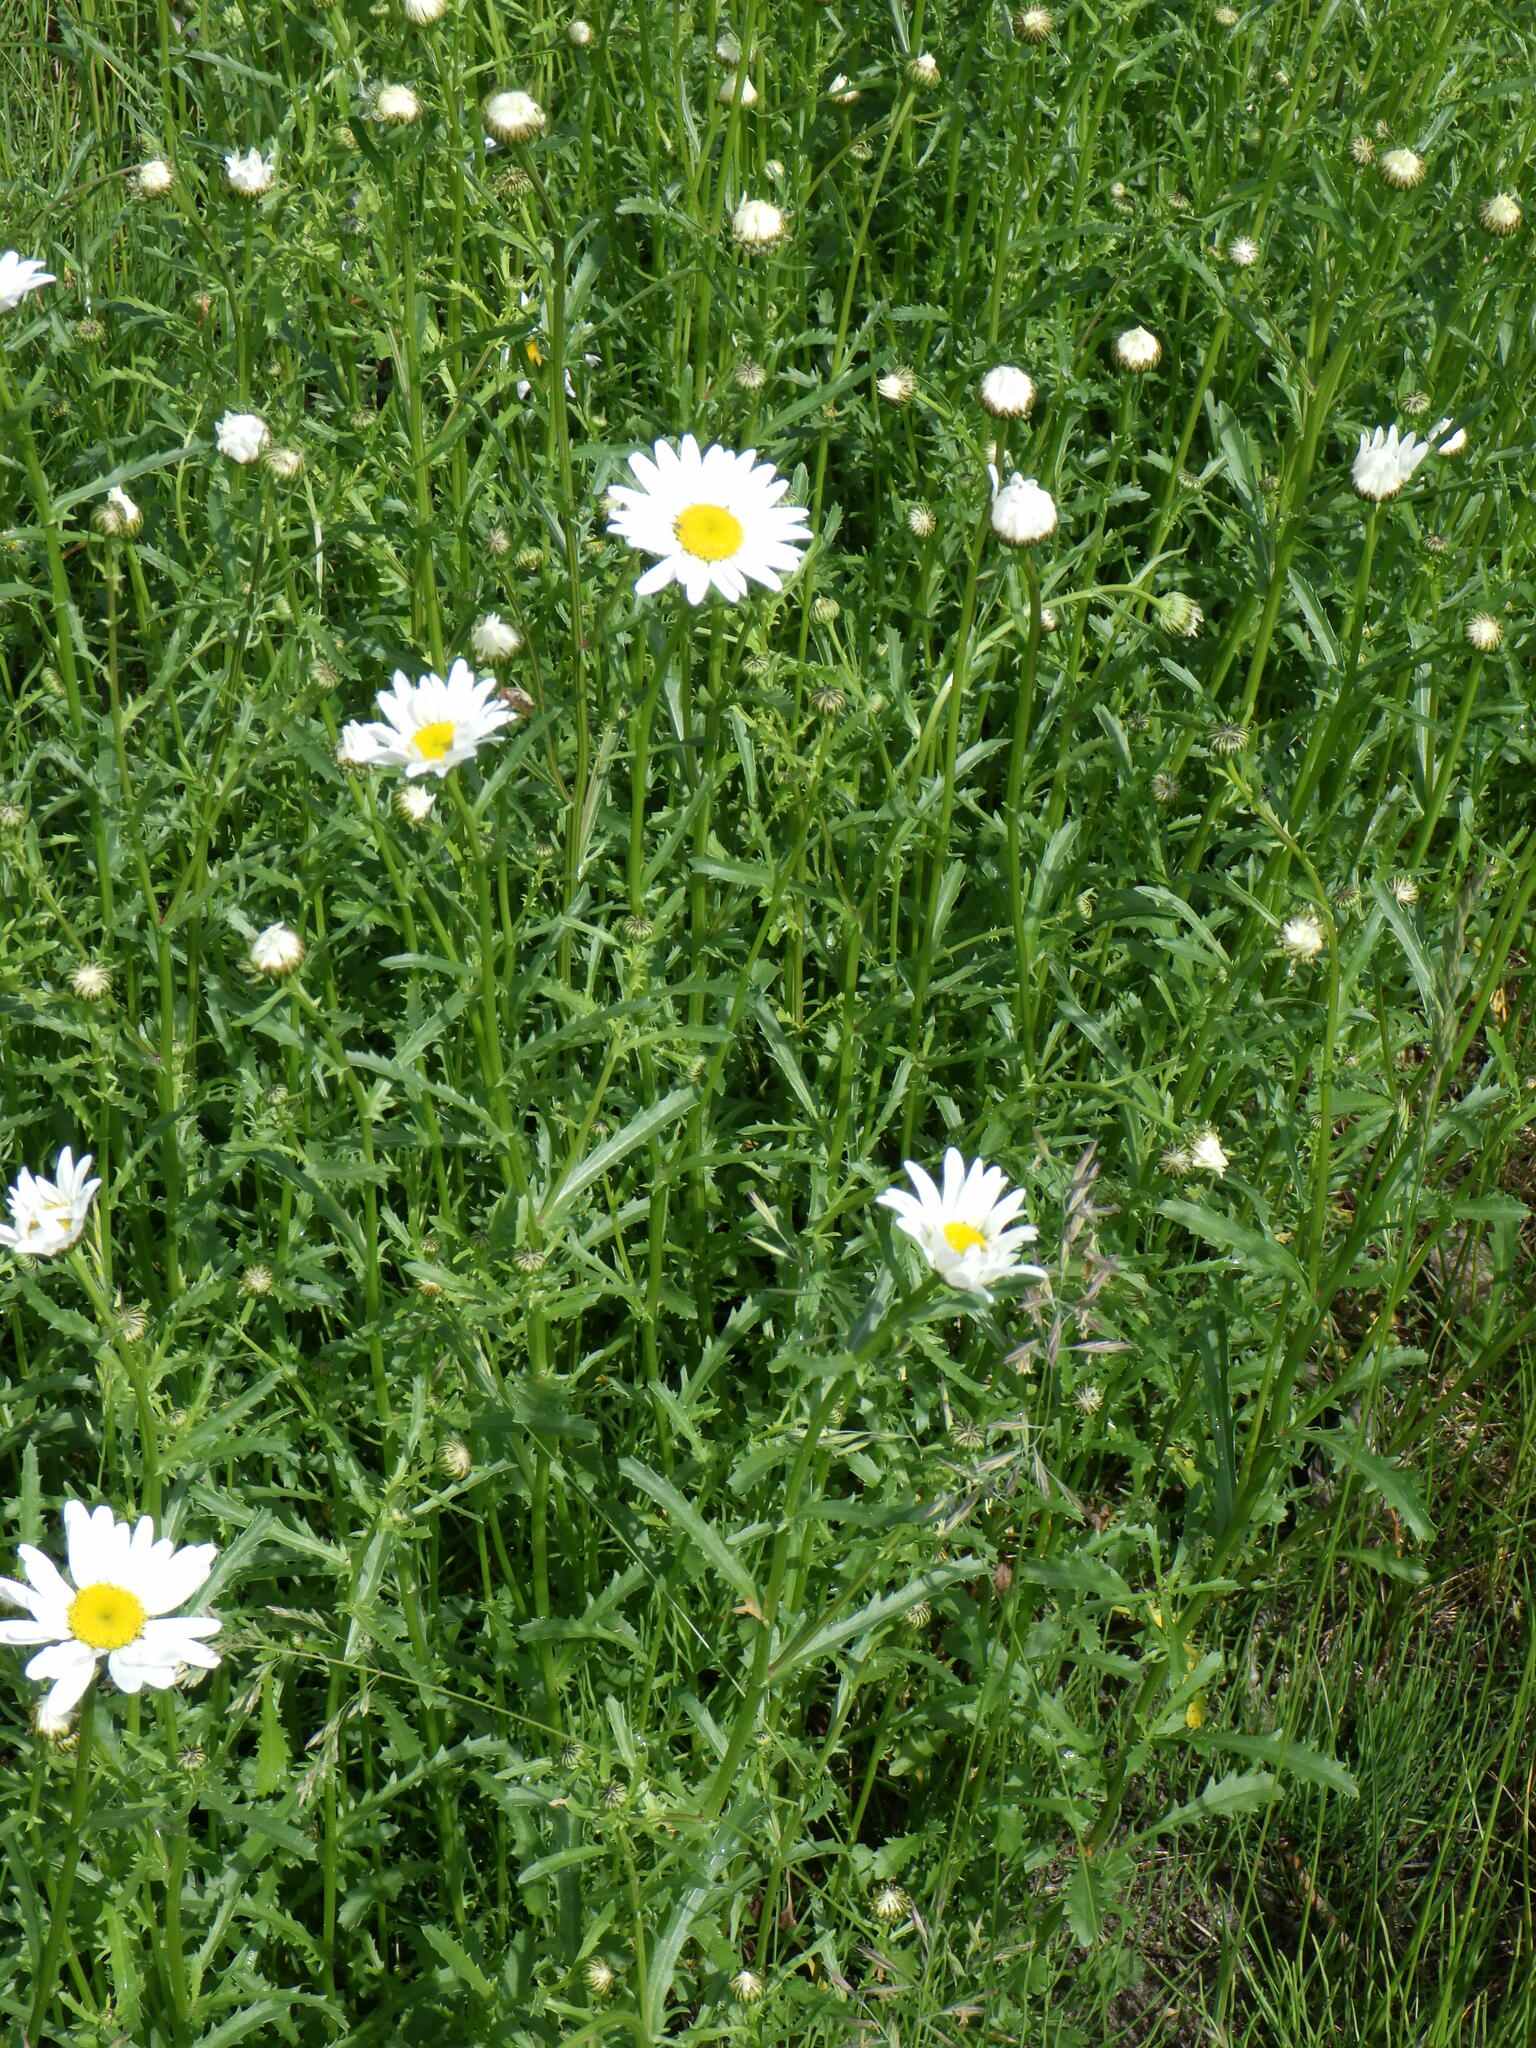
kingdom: Plantae
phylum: Tracheophyta
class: Magnoliopsida
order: Asterales
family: Asteraceae
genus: Leucanthemum
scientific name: Leucanthemum vulgare
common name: Oxeye daisy
